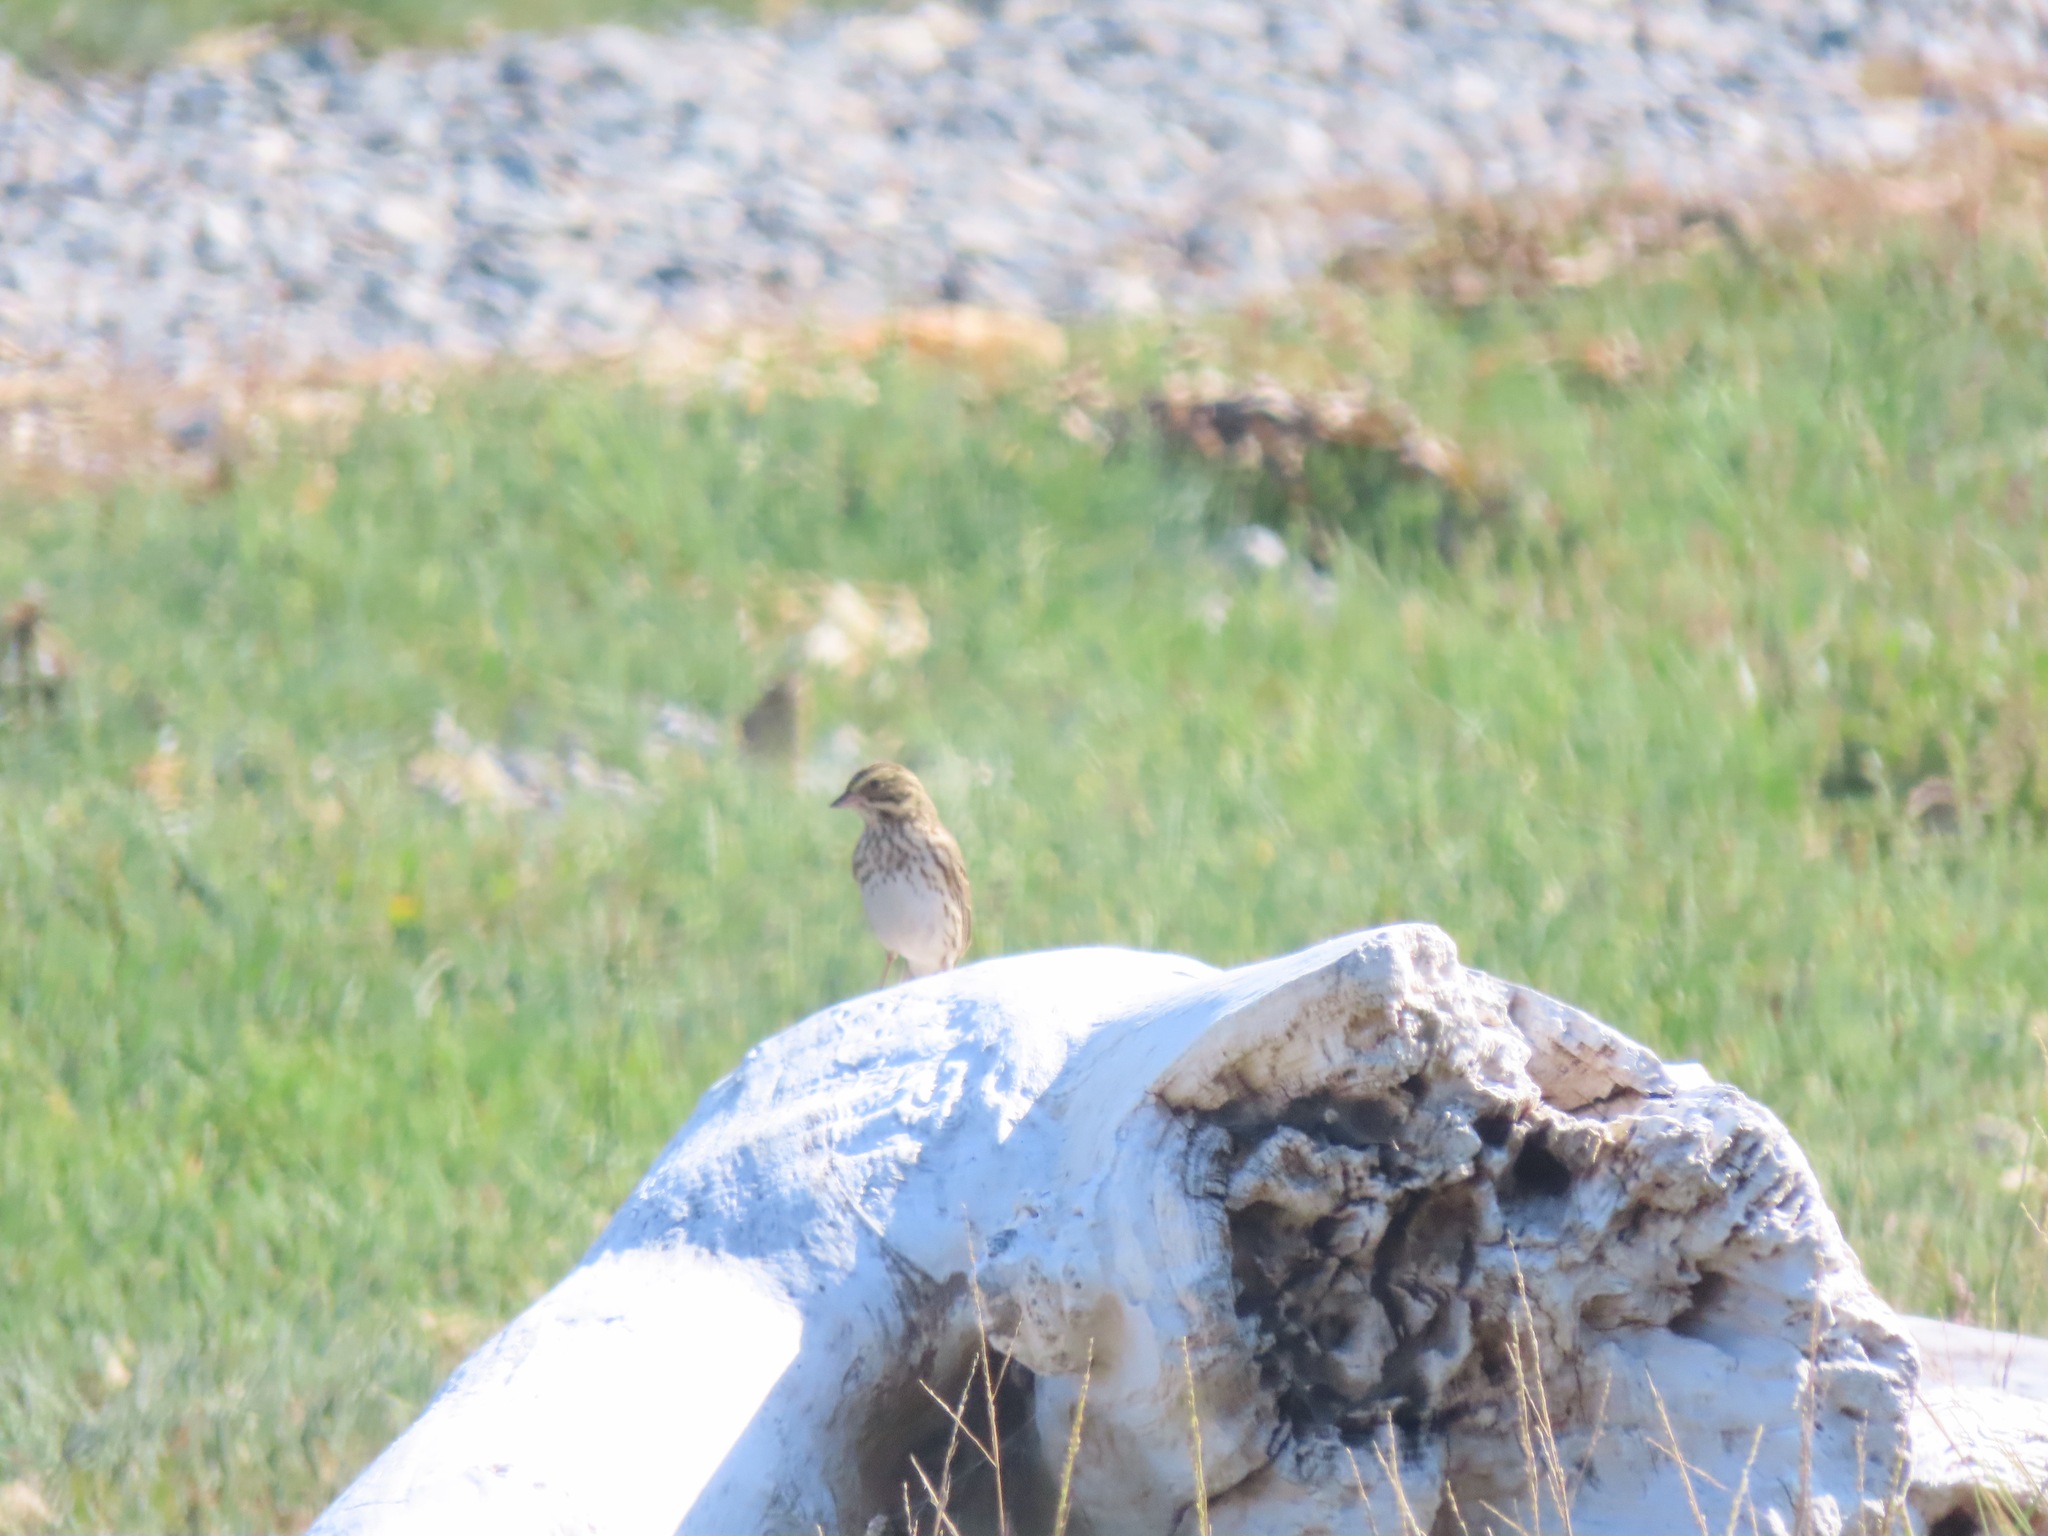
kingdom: Animalia
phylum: Chordata
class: Aves
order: Passeriformes
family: Passerellidae
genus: Passerculus
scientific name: Passerculus sandwichensis
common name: Savannah sparrow
